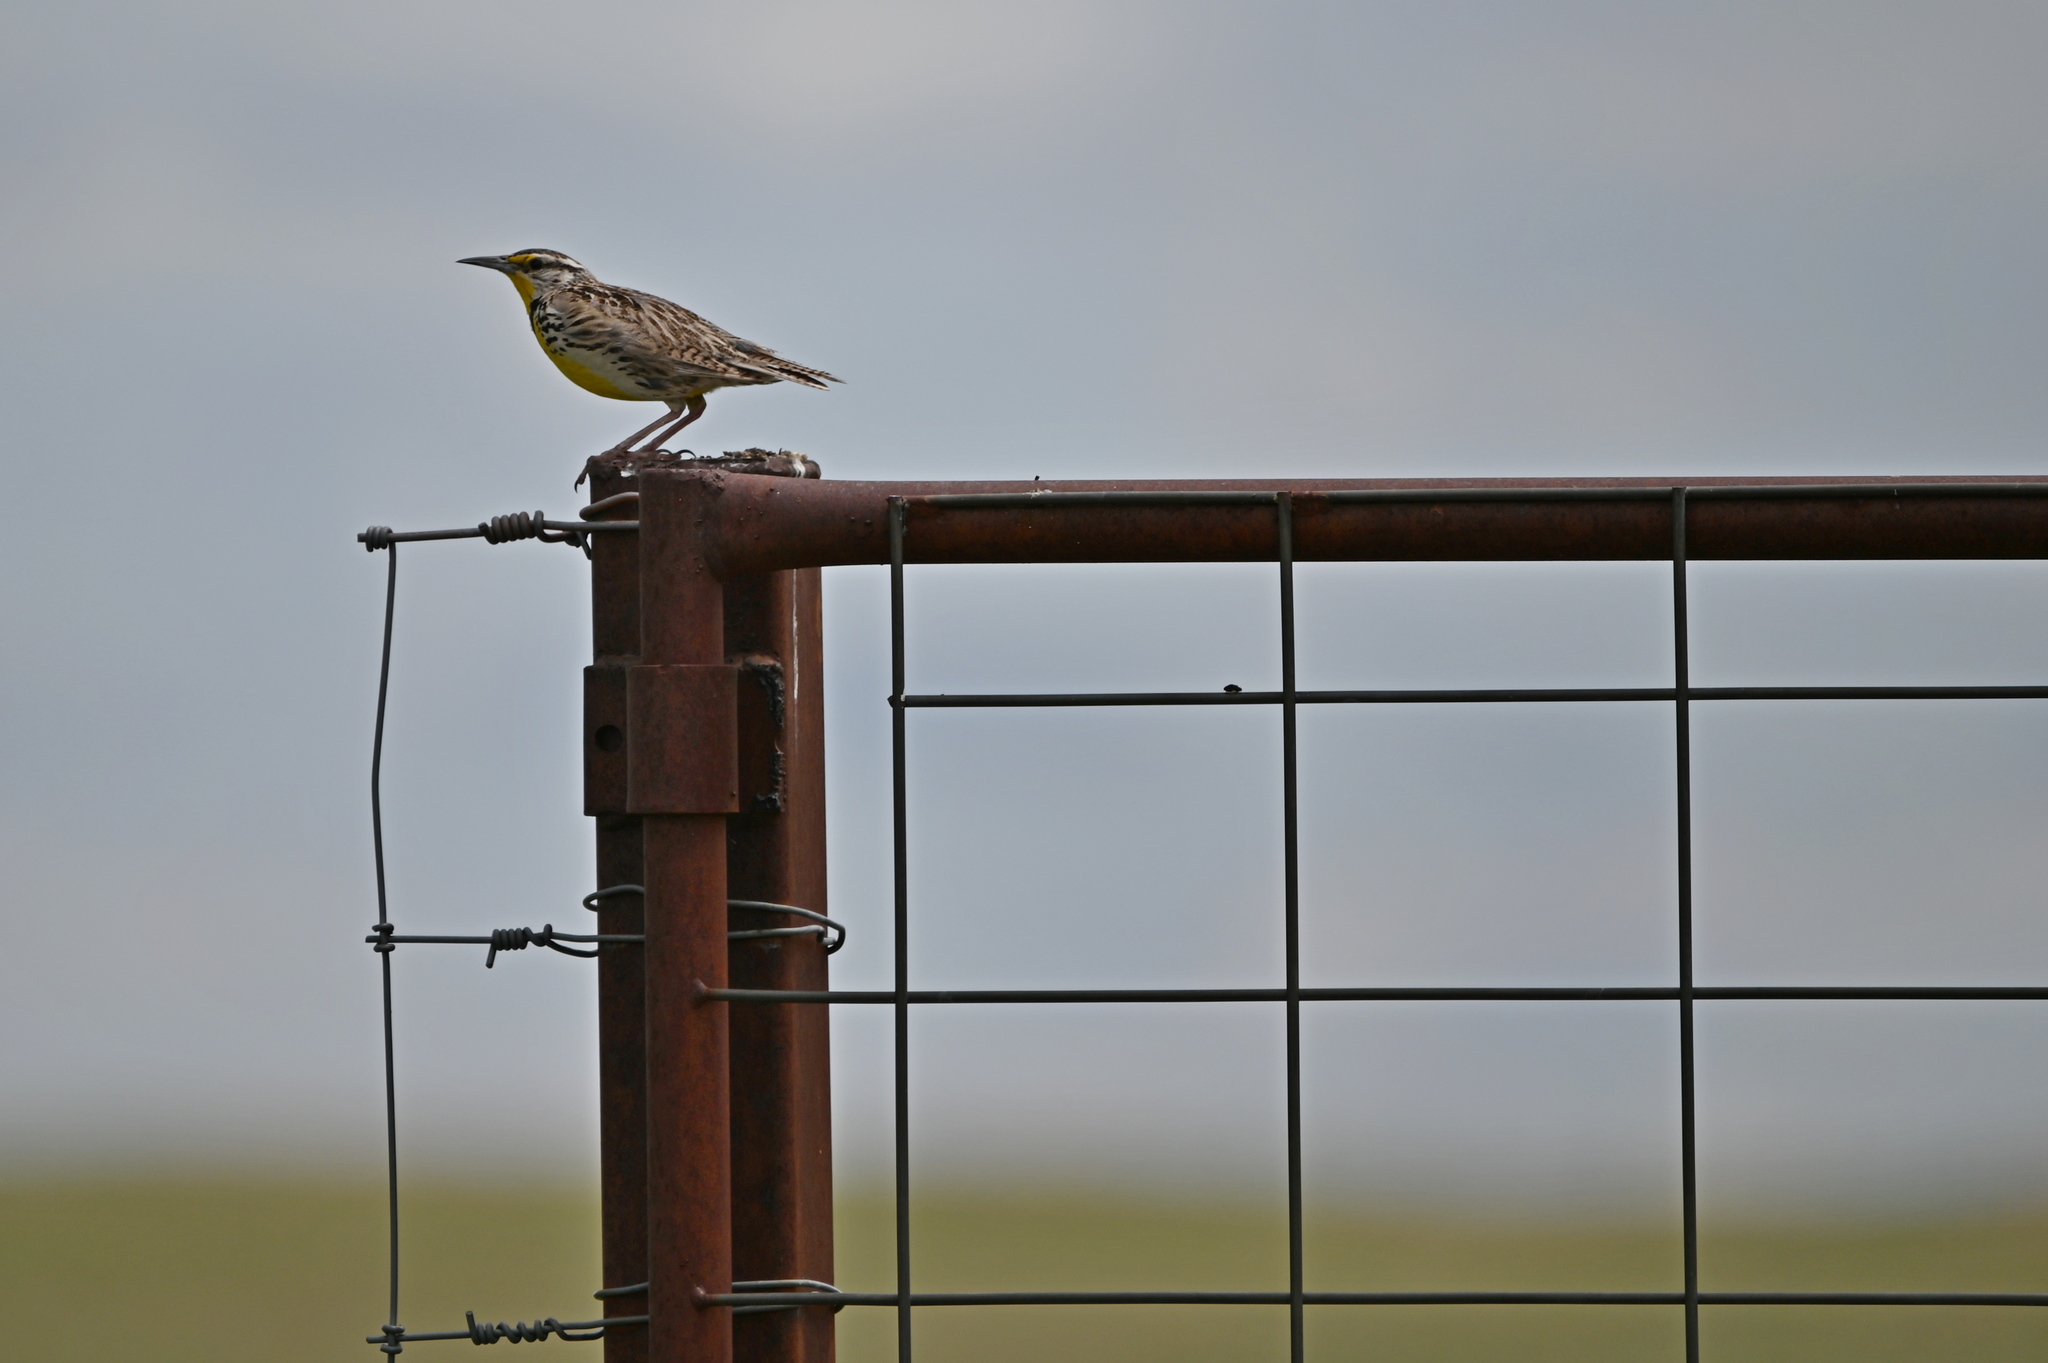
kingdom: Animalia
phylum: Chordata
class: Aves
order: Passeriformes
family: Icteridae
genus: Sturnella
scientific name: Sturnella neglecta
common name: Western meadowlark
